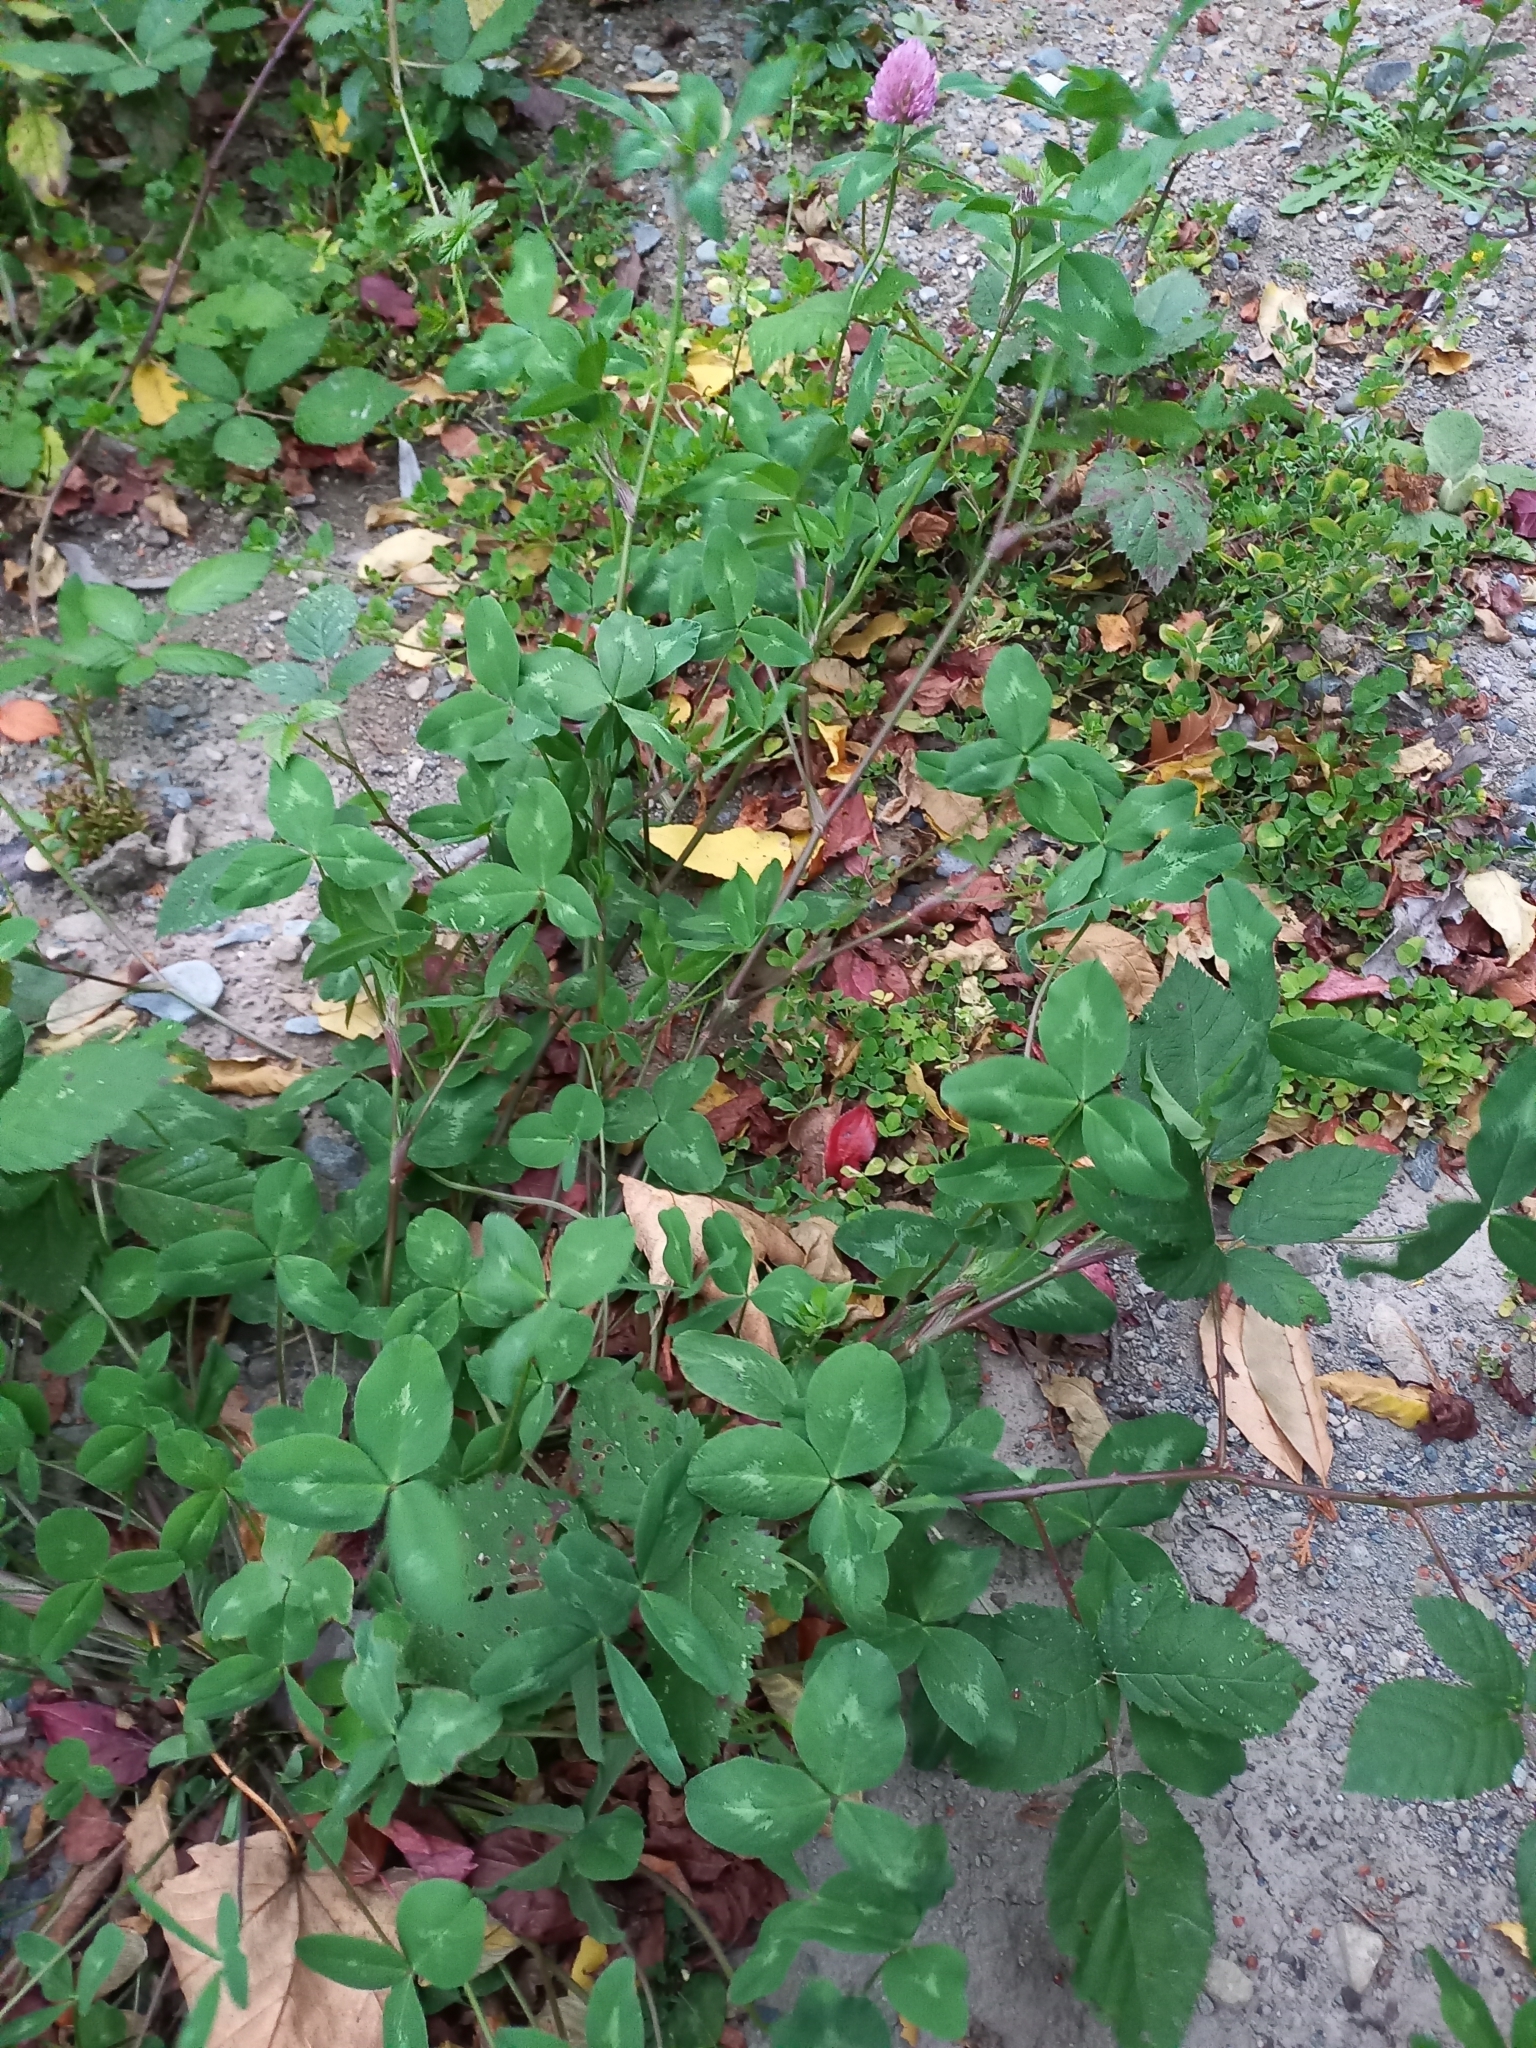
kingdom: Plantae
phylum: Tracheophyta
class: Magnoliopsida
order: Fabales
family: Fabaceae
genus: Trifolium
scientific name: Trifolium pratense
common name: Red clover
